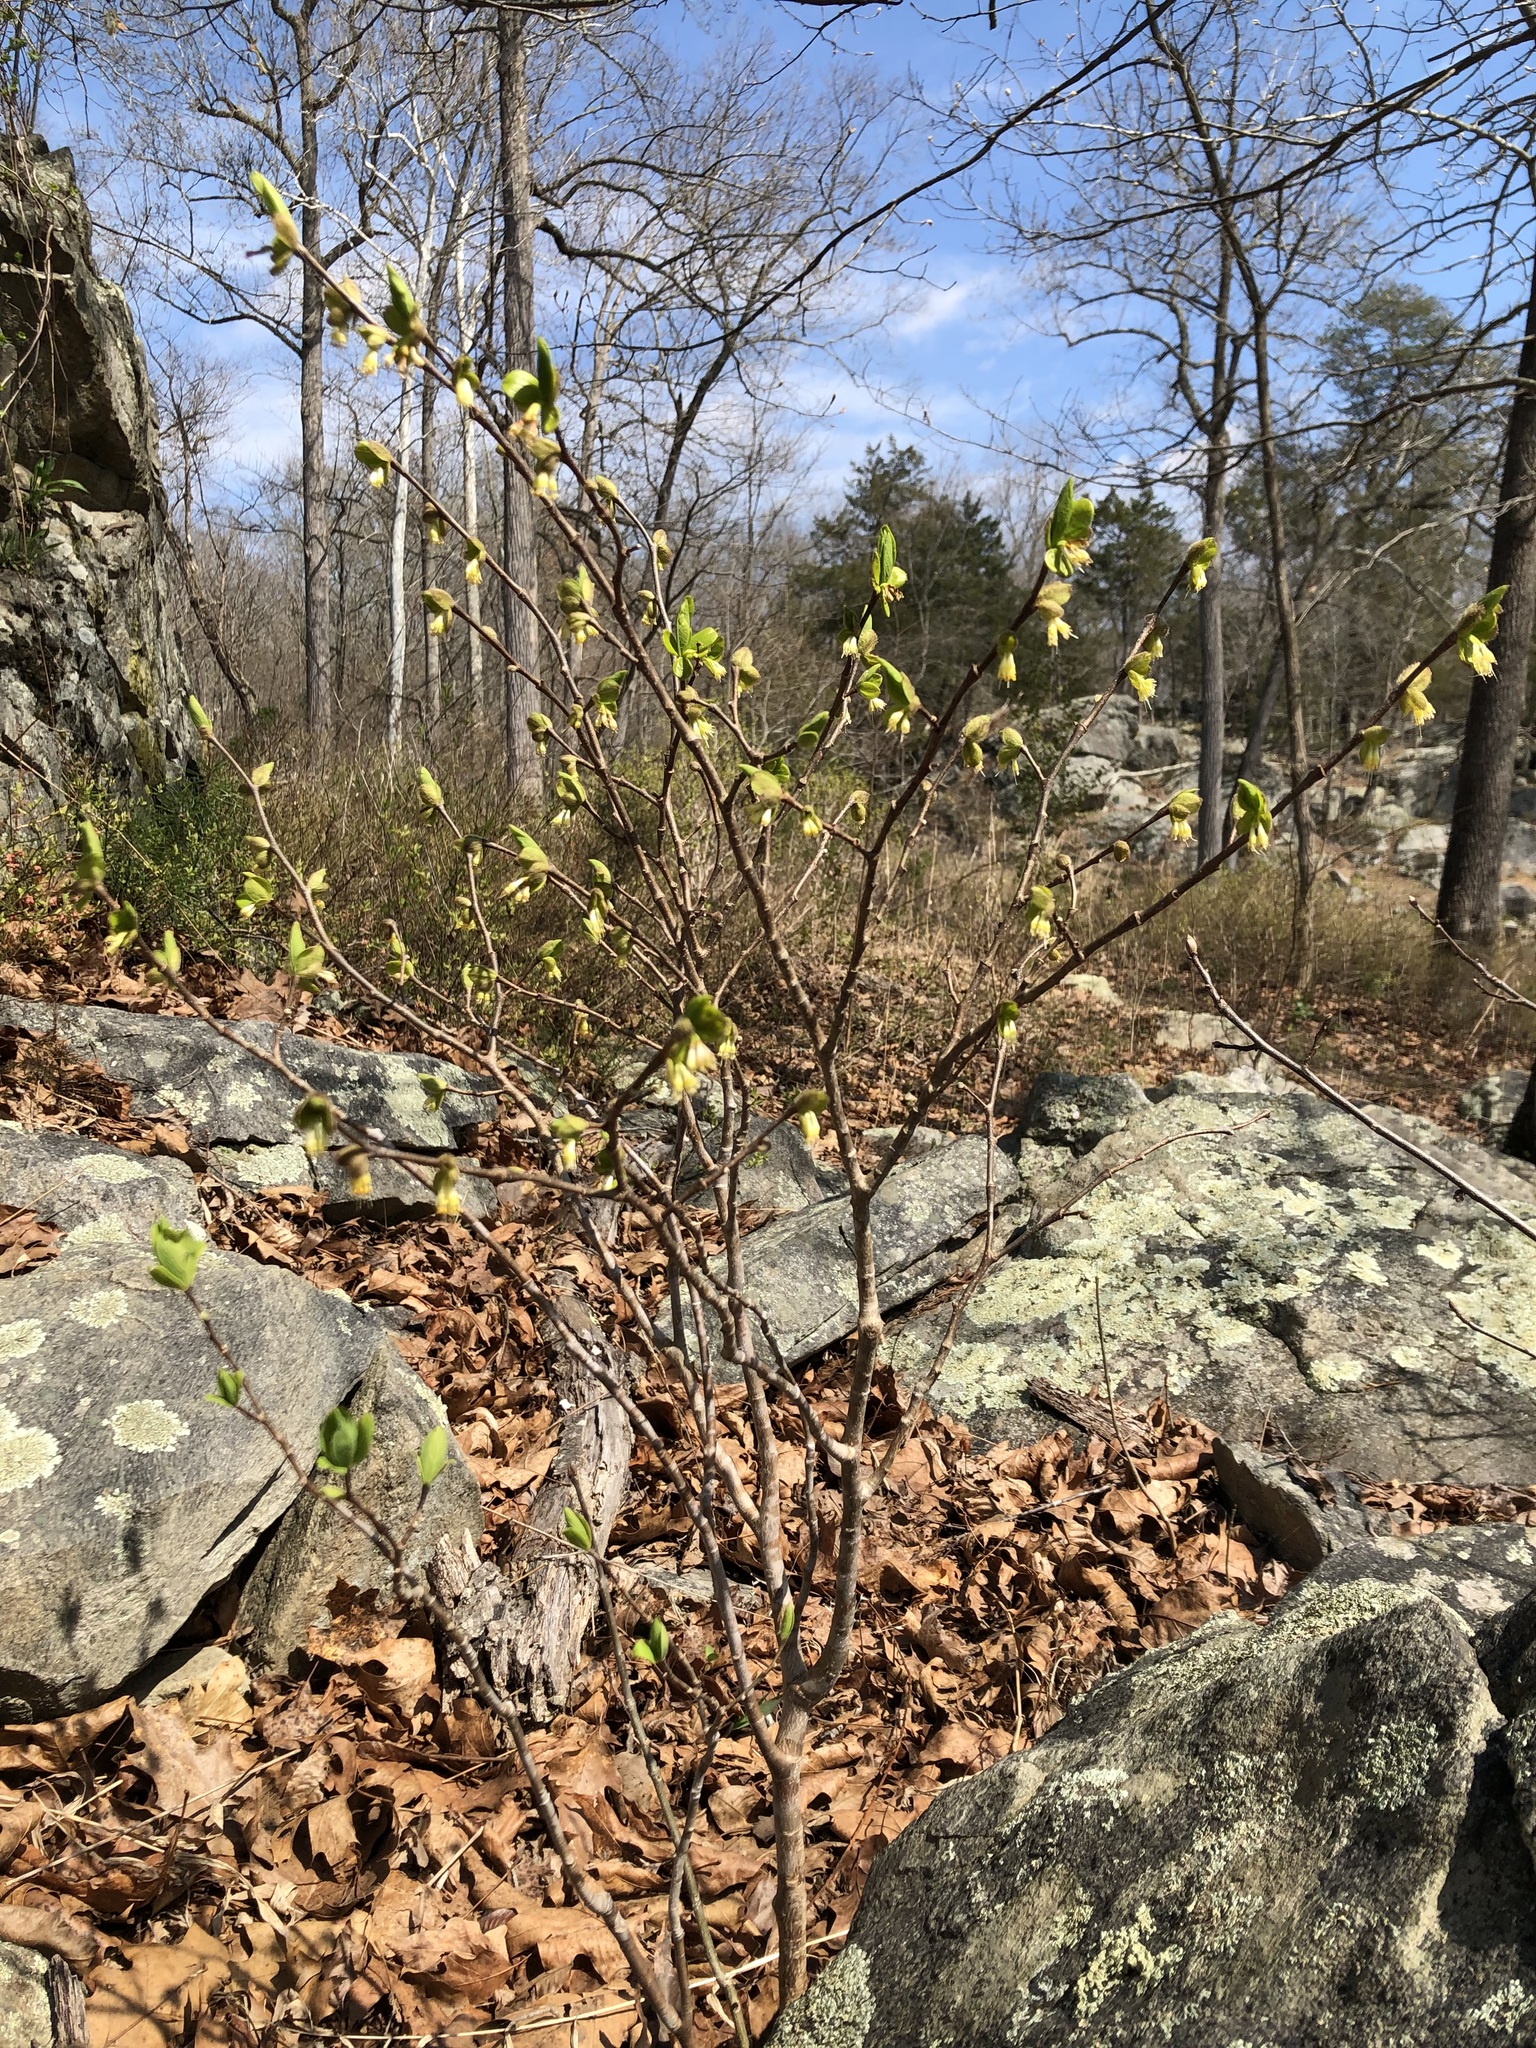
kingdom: Plantae
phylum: Tracheophyta
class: Magnoliopsida
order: Malvales
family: Thymelaeaceae
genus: Dirca
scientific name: Dirca palustris
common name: Leatherwood
